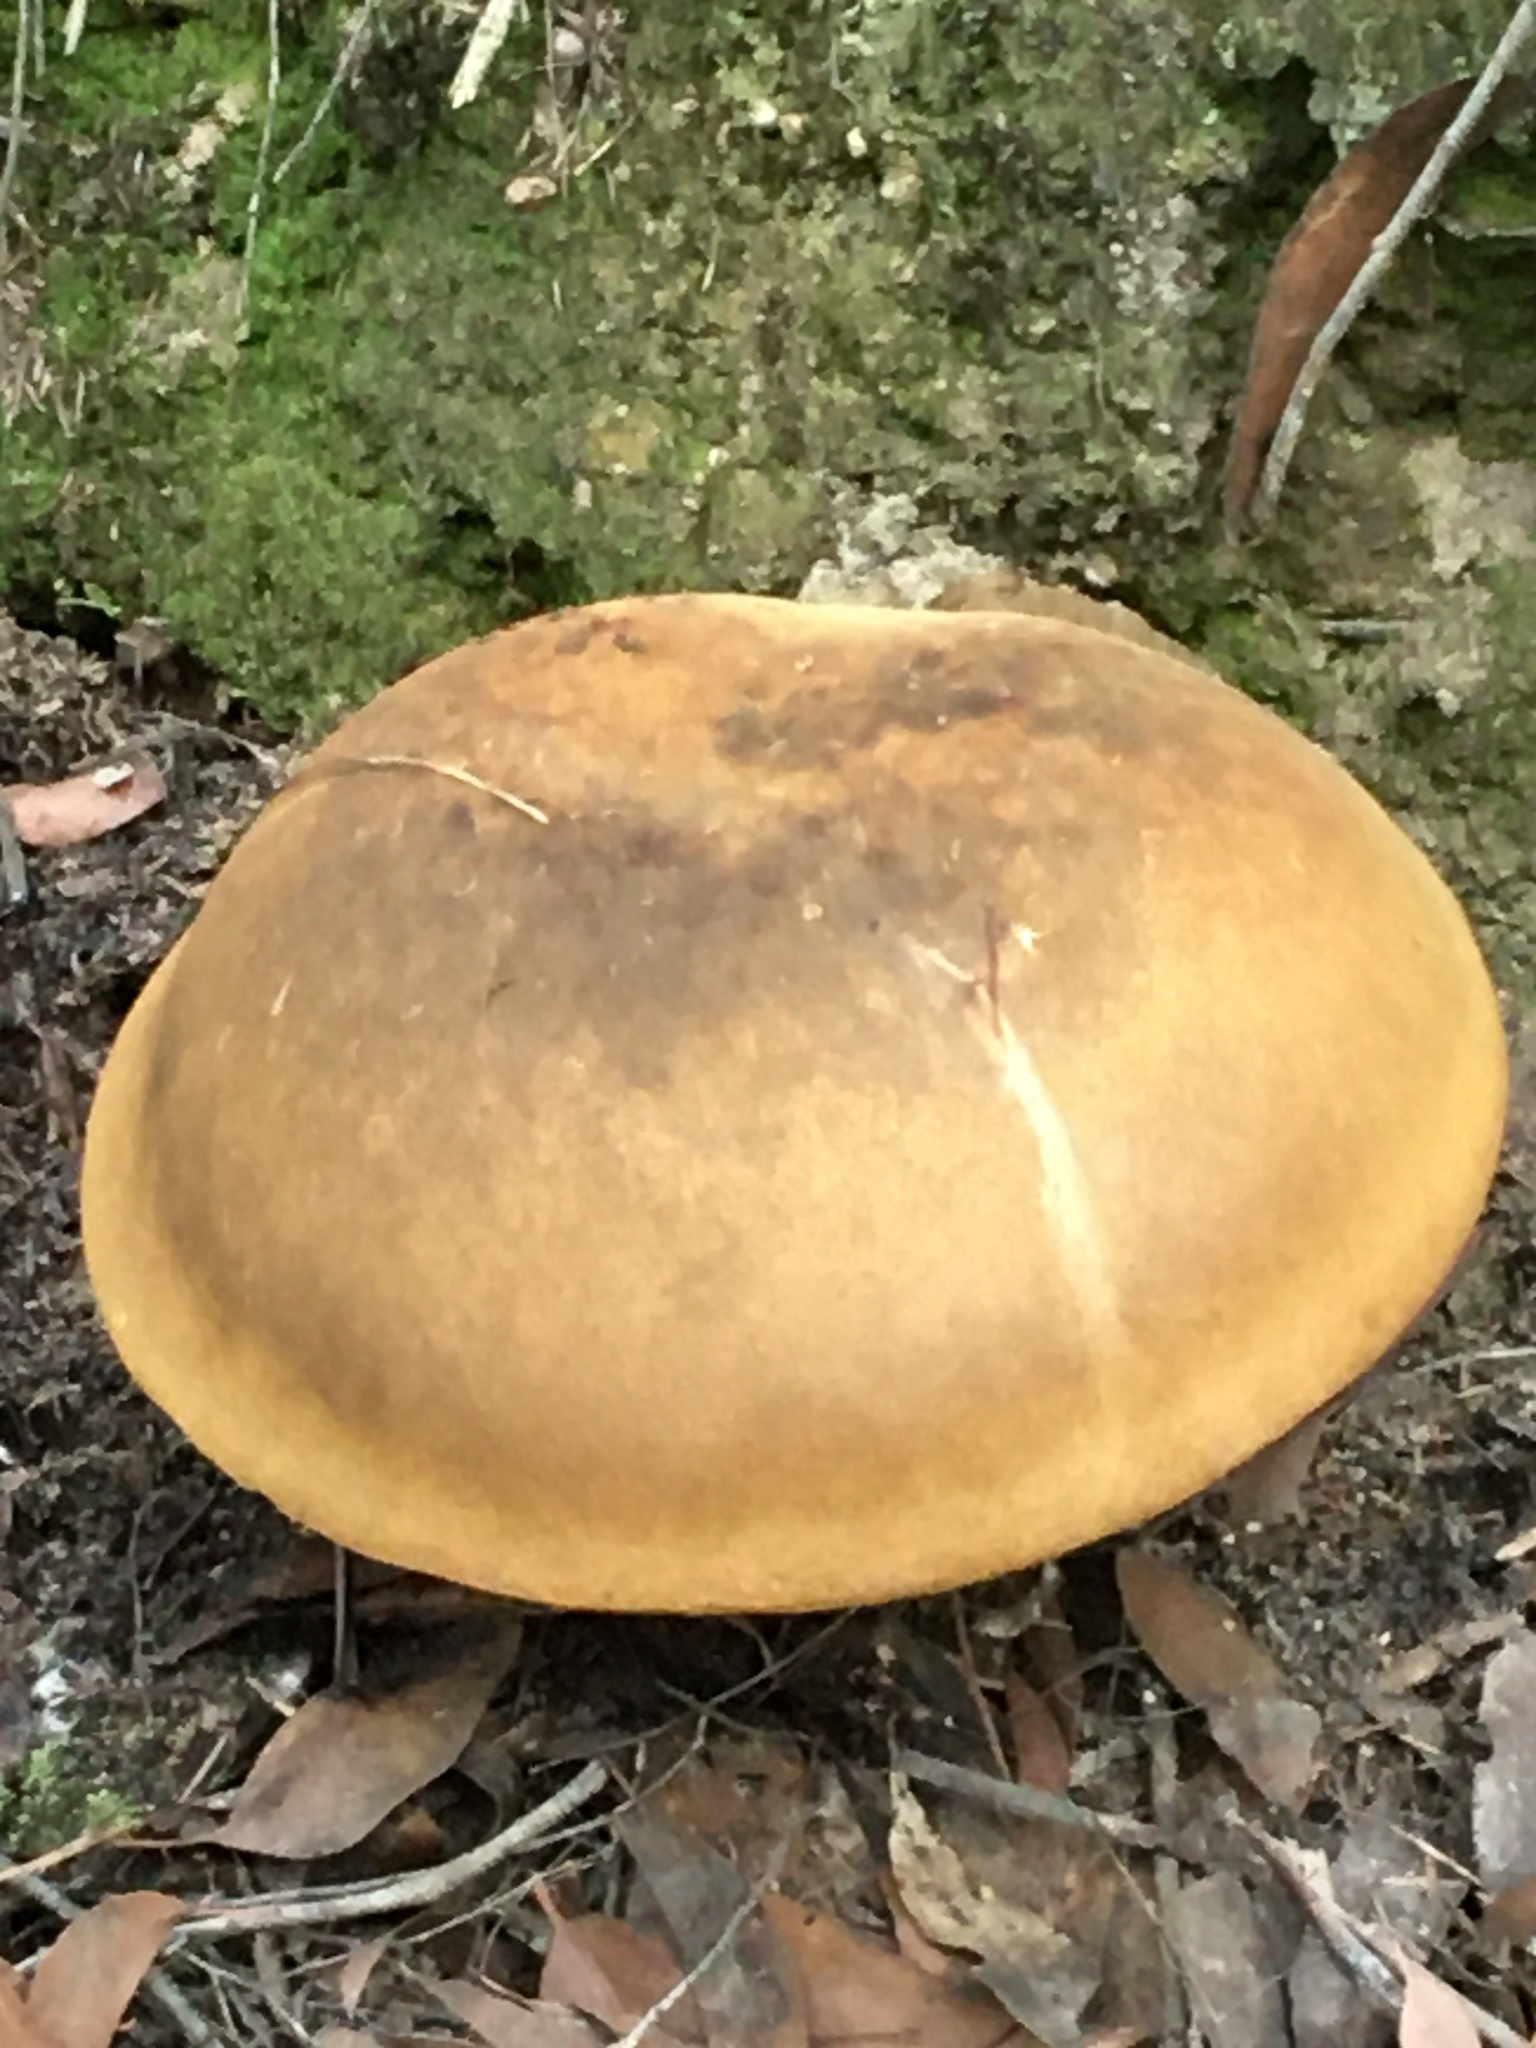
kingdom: Fungi
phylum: Basidiomycota
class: Agaricomycetes
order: Boletales
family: Boletinellaceae
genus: Phlebopus
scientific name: Phlebopus marginatus
